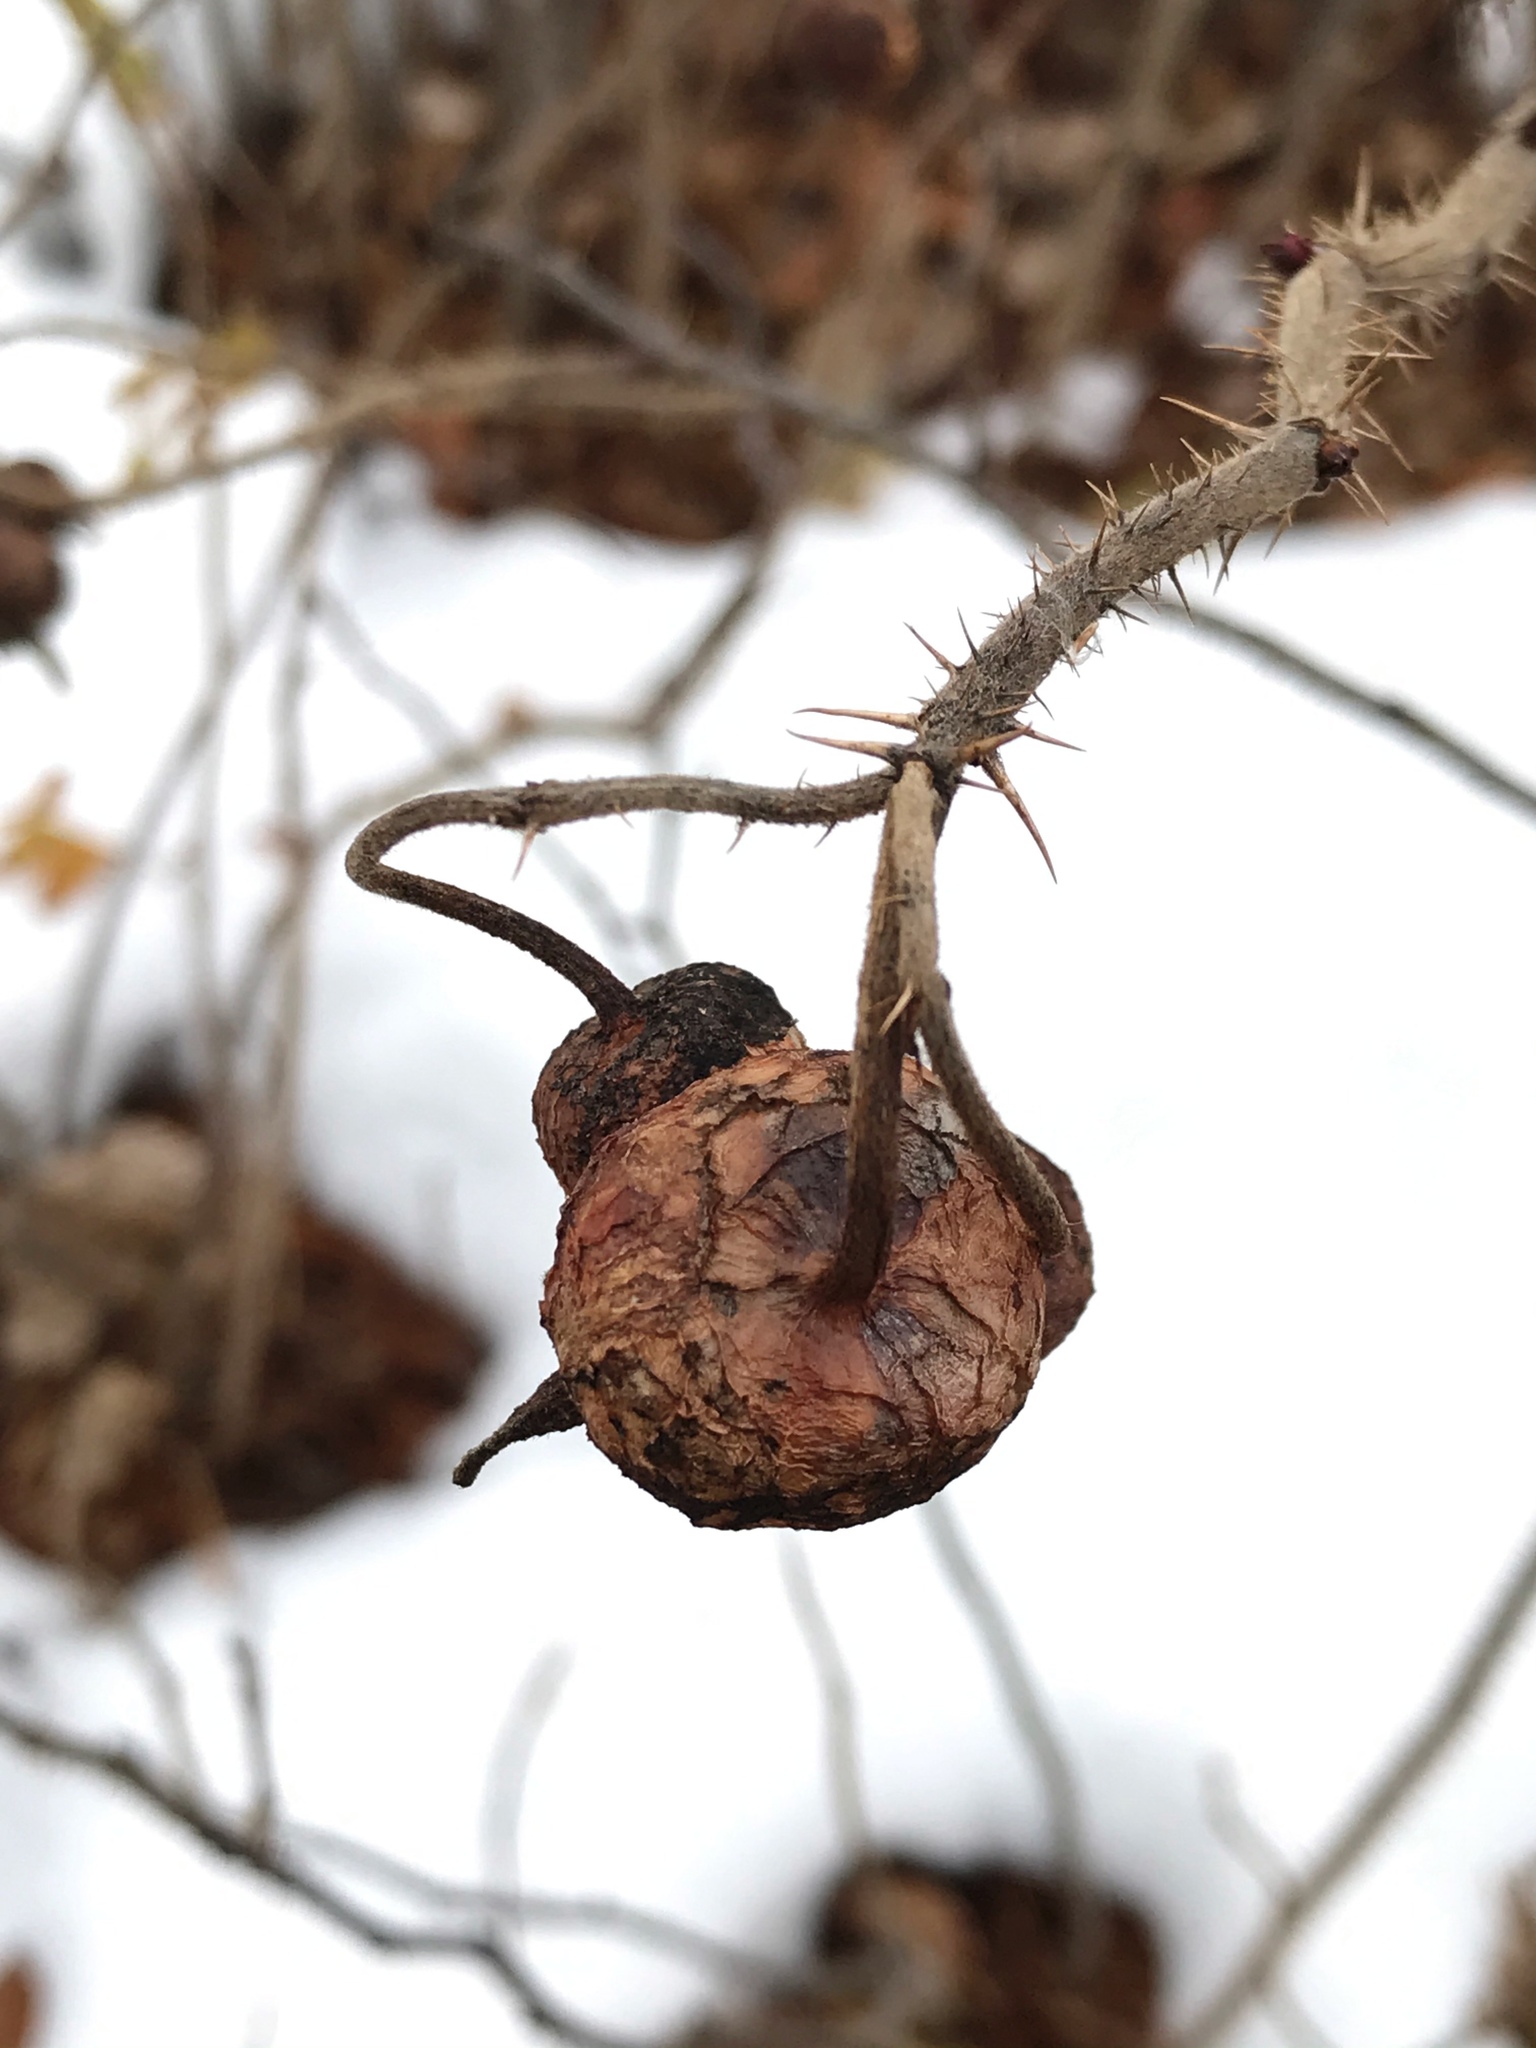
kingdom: Plantae
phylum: Tracheophyta
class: Magnoliopsida
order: Rosales
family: Rosaceae
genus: Rosa
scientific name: Rosa rugosa
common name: Japanese rose
